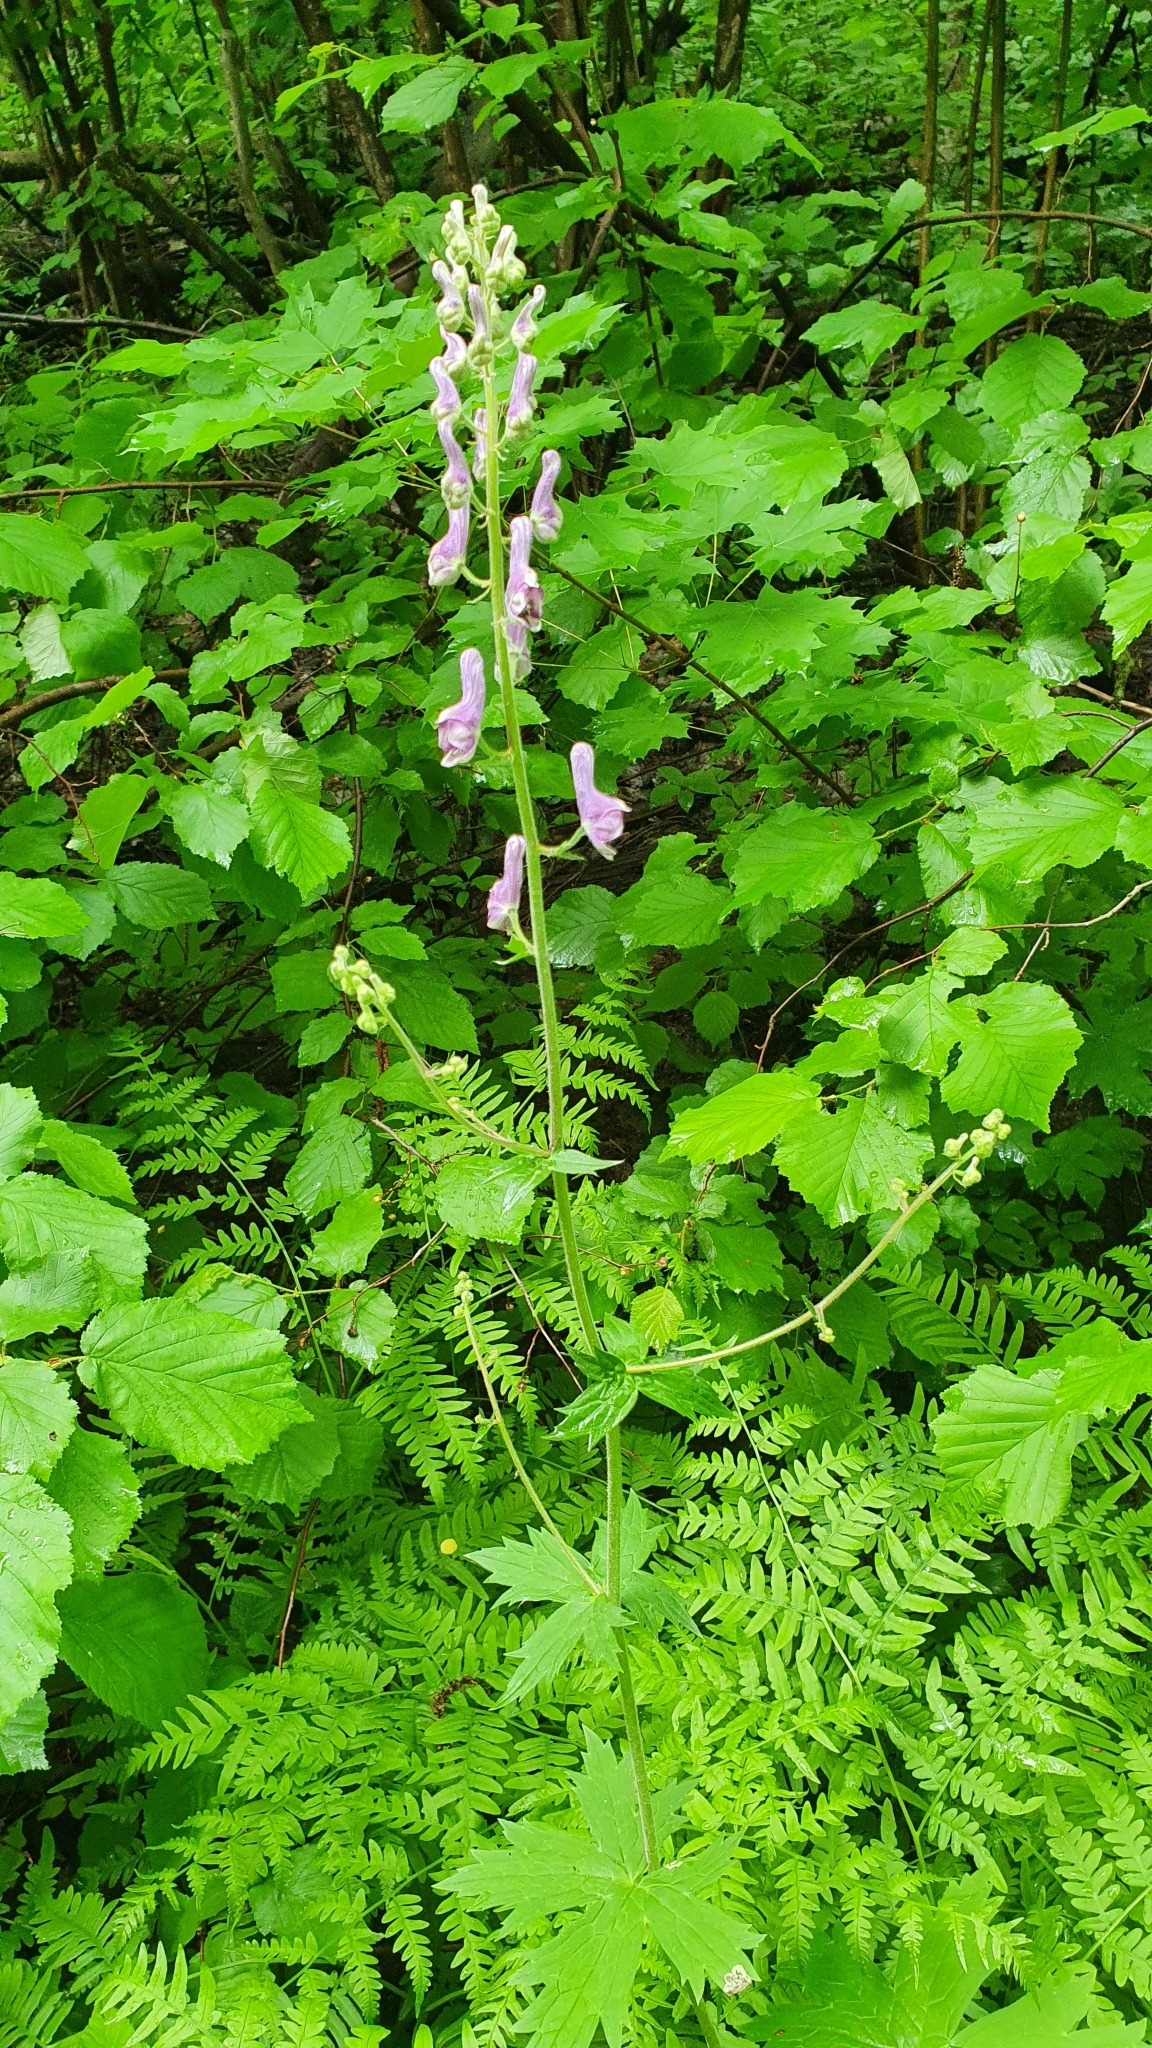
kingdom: Plantae
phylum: Tracheophyta
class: Magnoliopsida
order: Ranunculales
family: Ranunculaceae
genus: Aconitum
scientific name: Aconitum septentrionale
